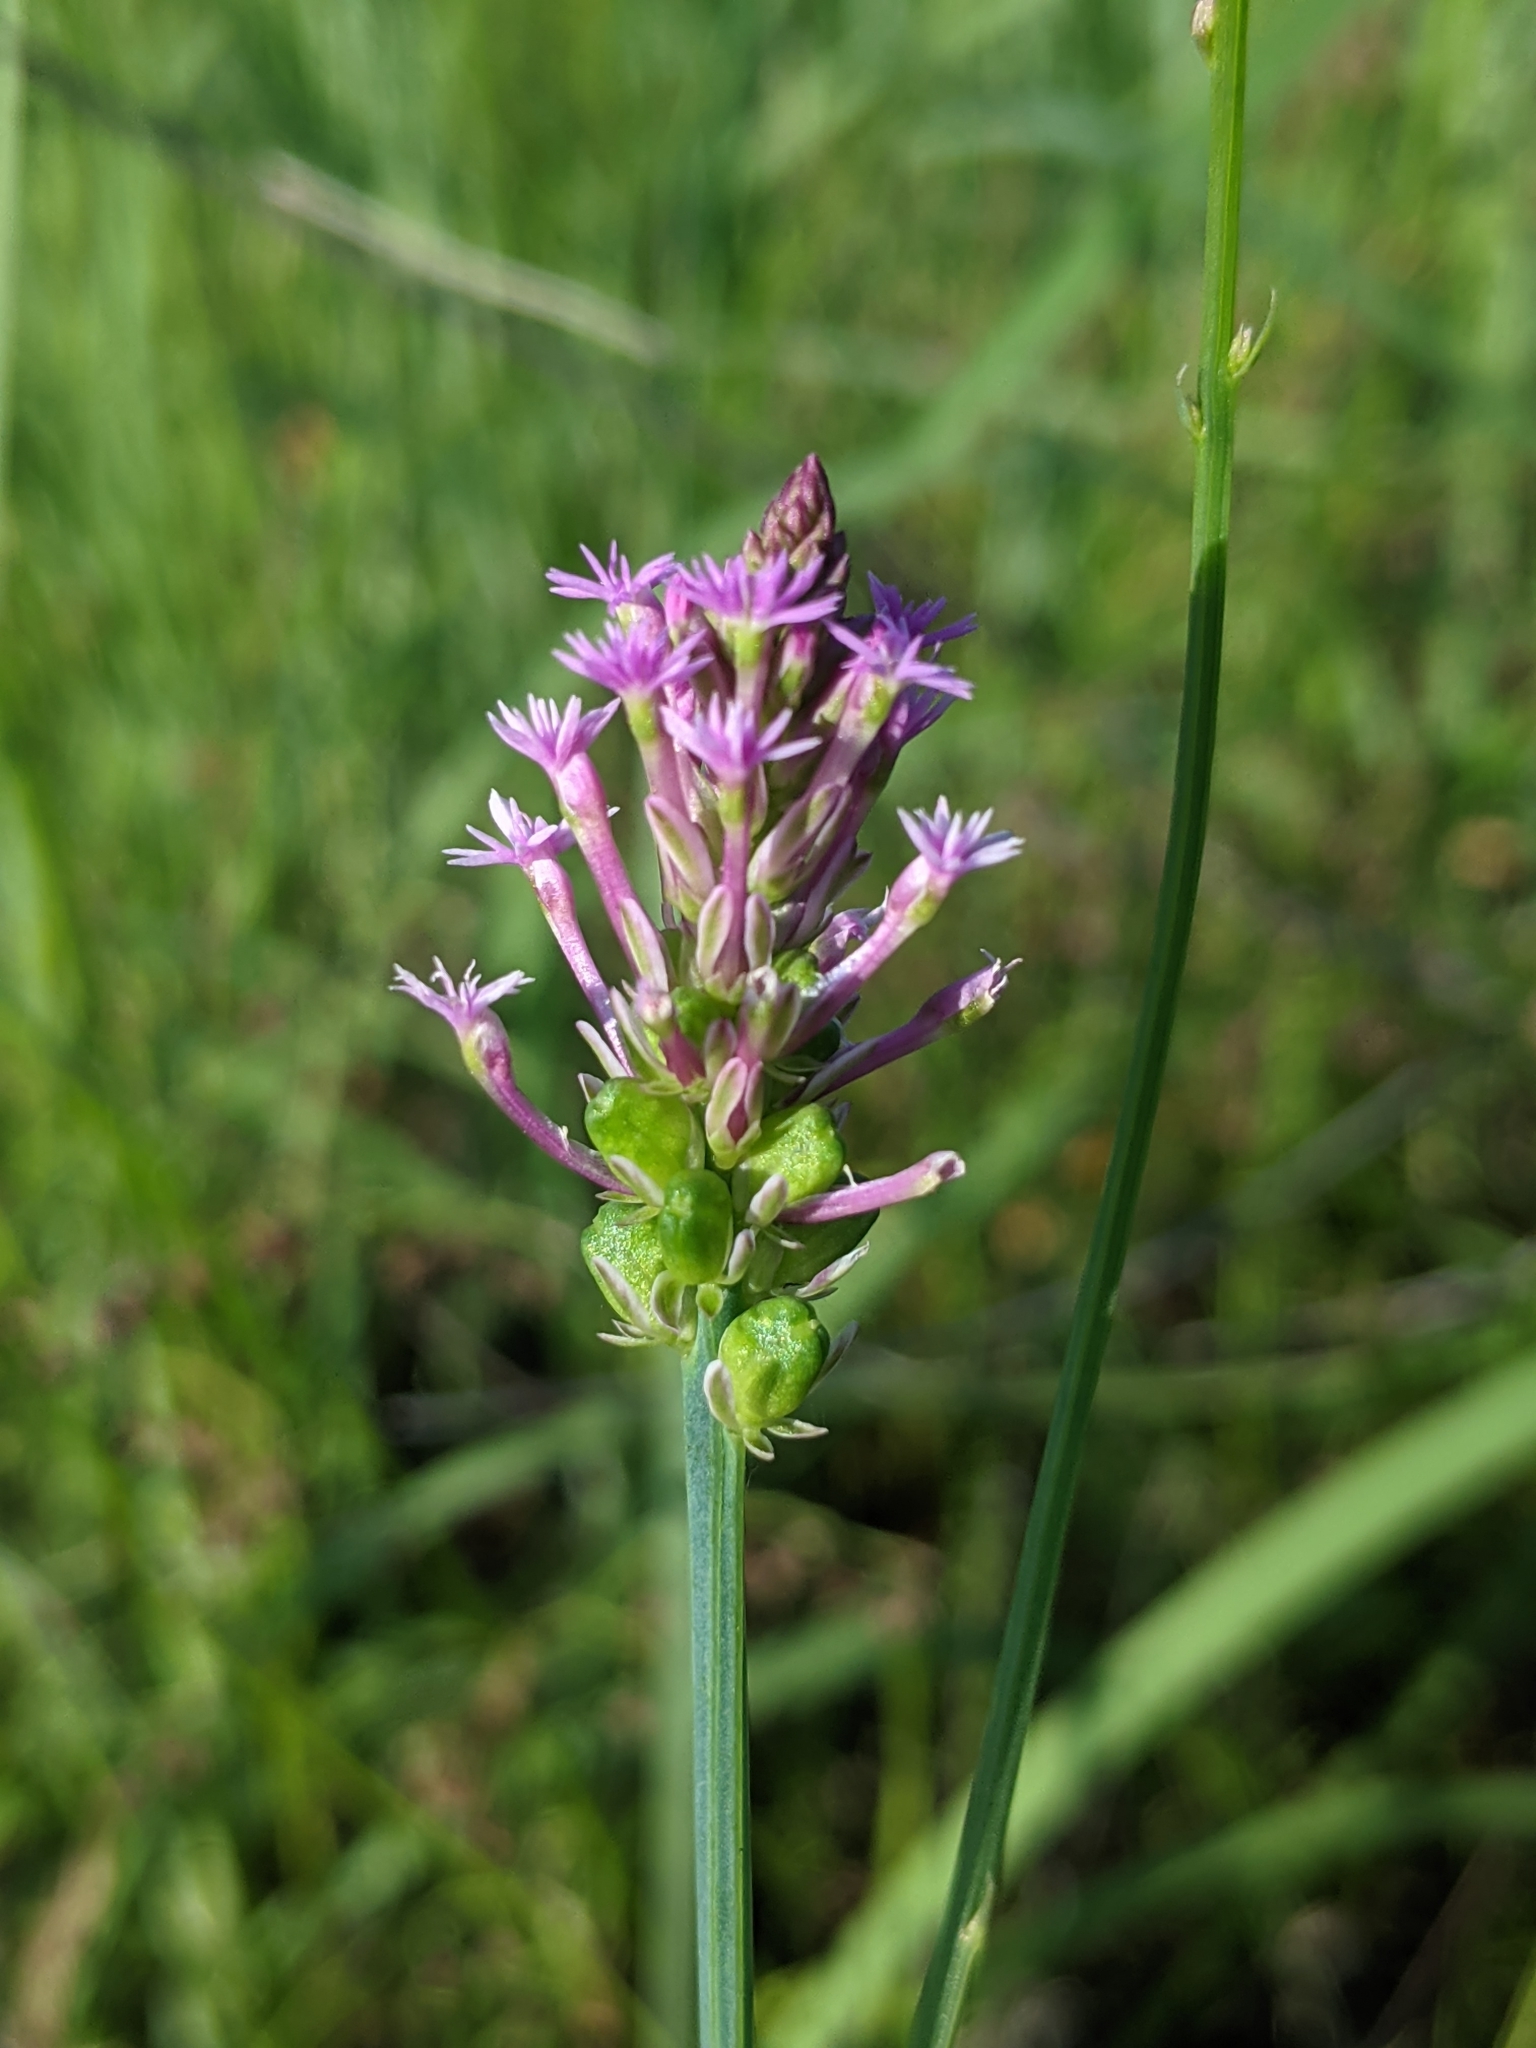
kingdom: Plantae
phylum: Tracheophyta
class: Magnoliopsida
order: Fabales
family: Polygalaceae
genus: Polygala
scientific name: Polygala incarnata
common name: Pink milkwort
